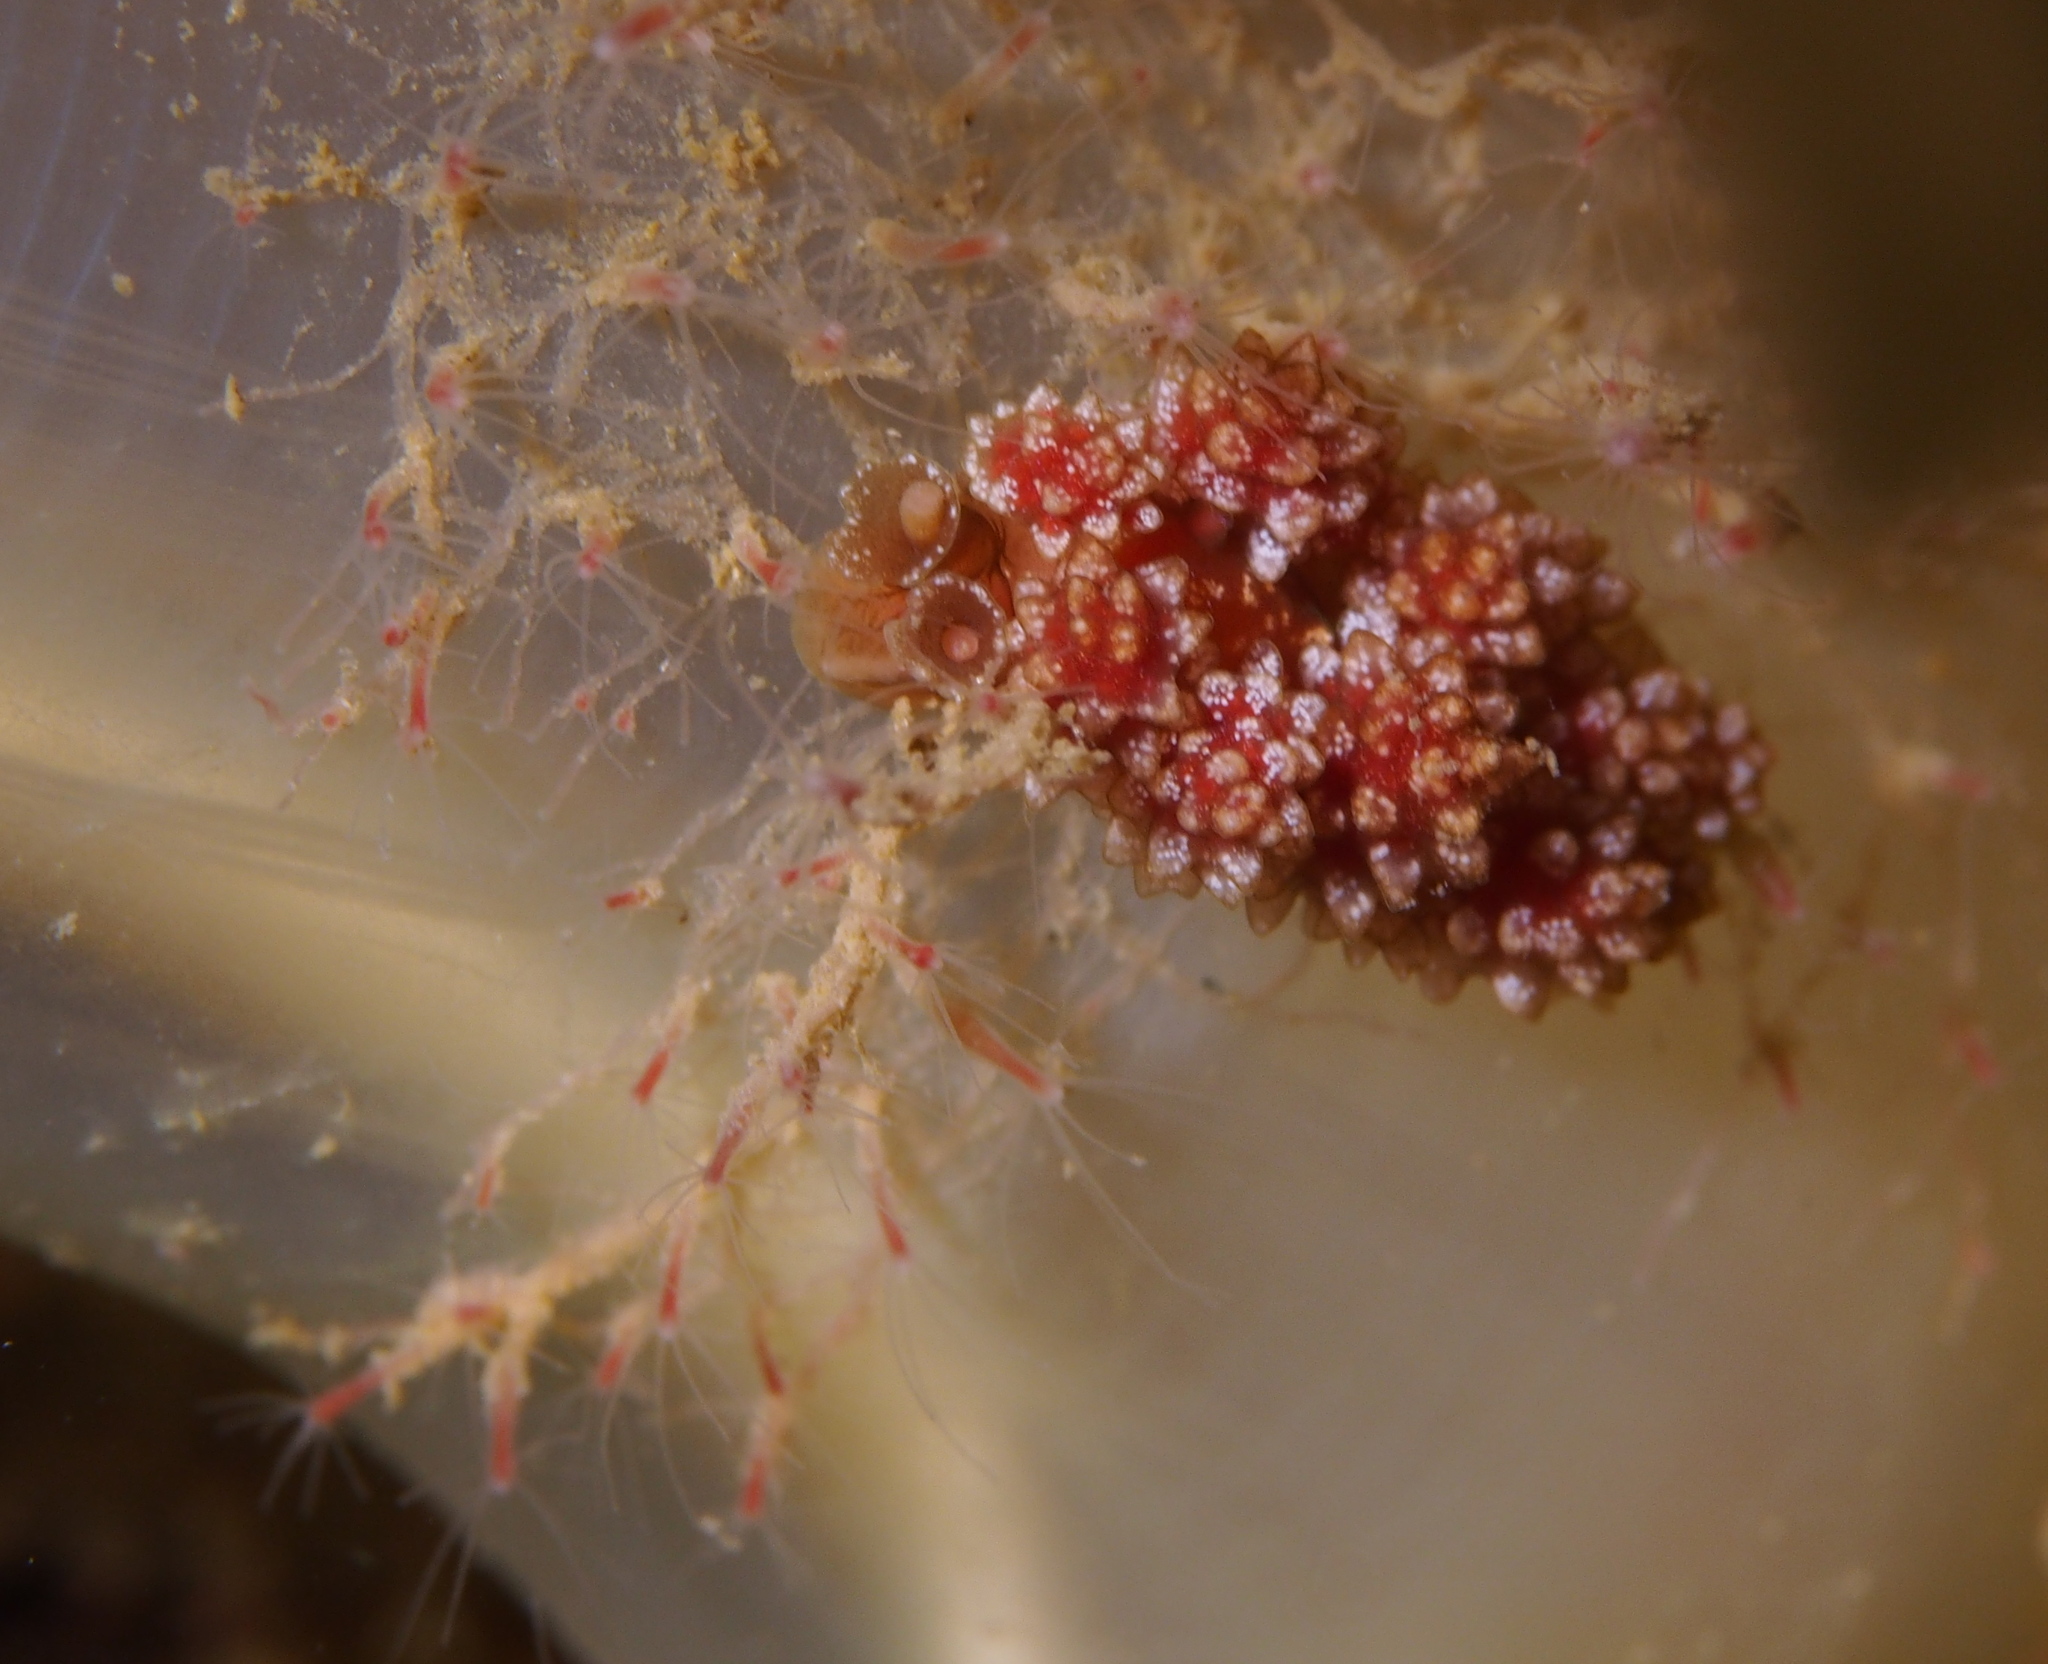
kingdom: Animalia
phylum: Mollusca
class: Gastropoda
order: Nudibranchia
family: Dotidae
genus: Doto
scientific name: Doto fragilis
